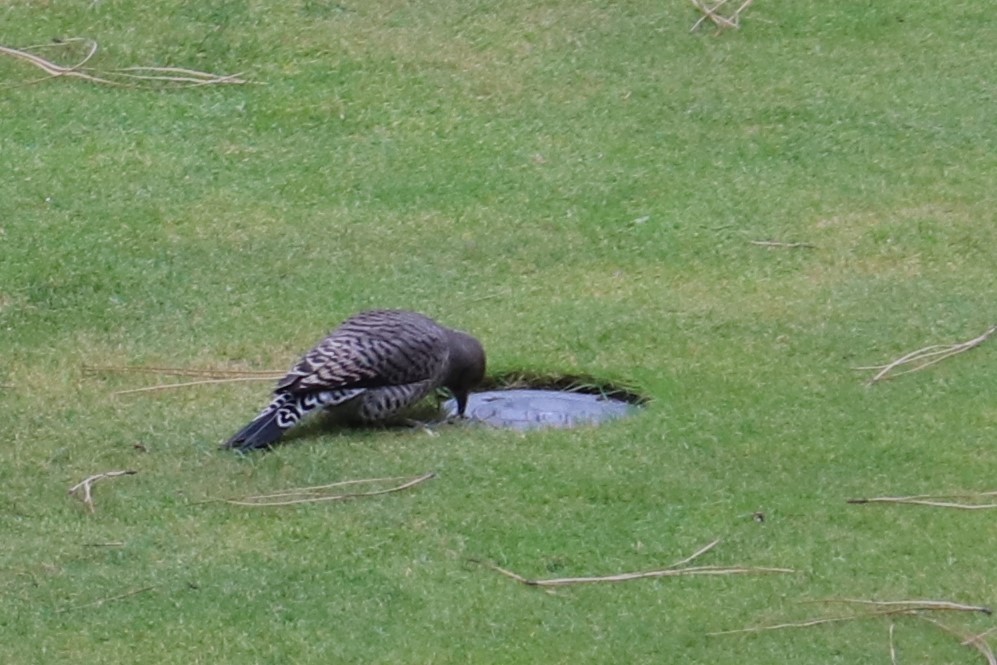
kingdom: Animalia
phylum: Chordata
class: Aves
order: Piciformes
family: Picidae
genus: Colaptes
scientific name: Colaptes auratus
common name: Northern flicker
